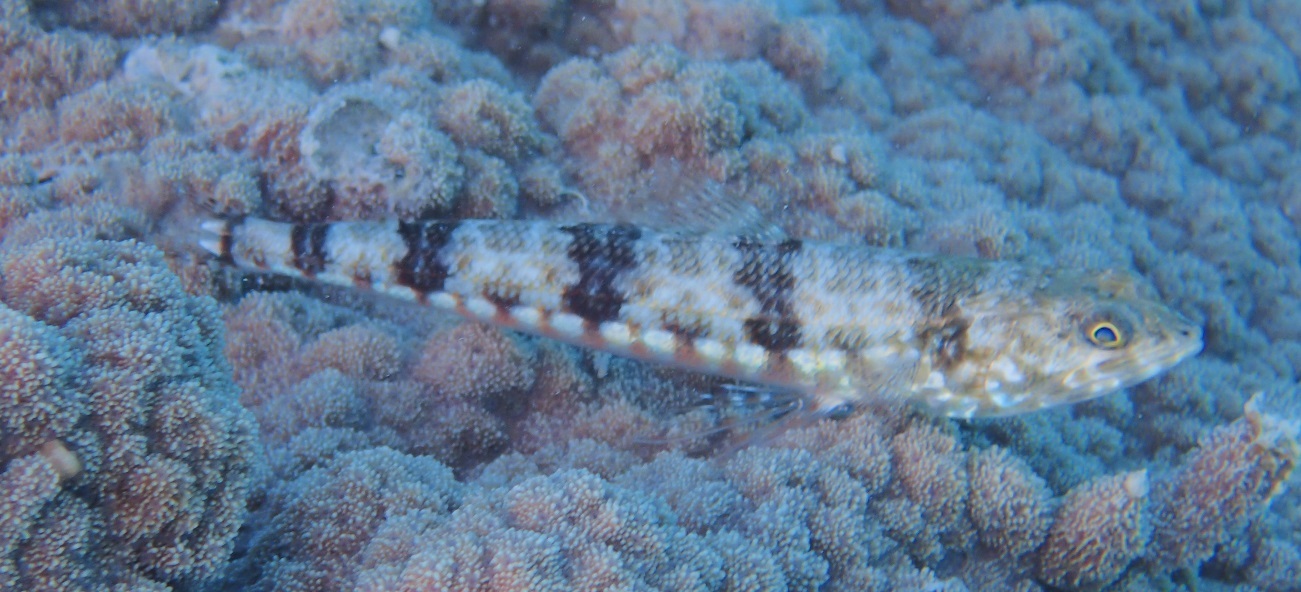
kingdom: Animalia
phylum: Chordata
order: Aulopiformes
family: Synodontidae
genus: Synodus
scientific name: Synodus variegatus
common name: Variegated lizardfish
